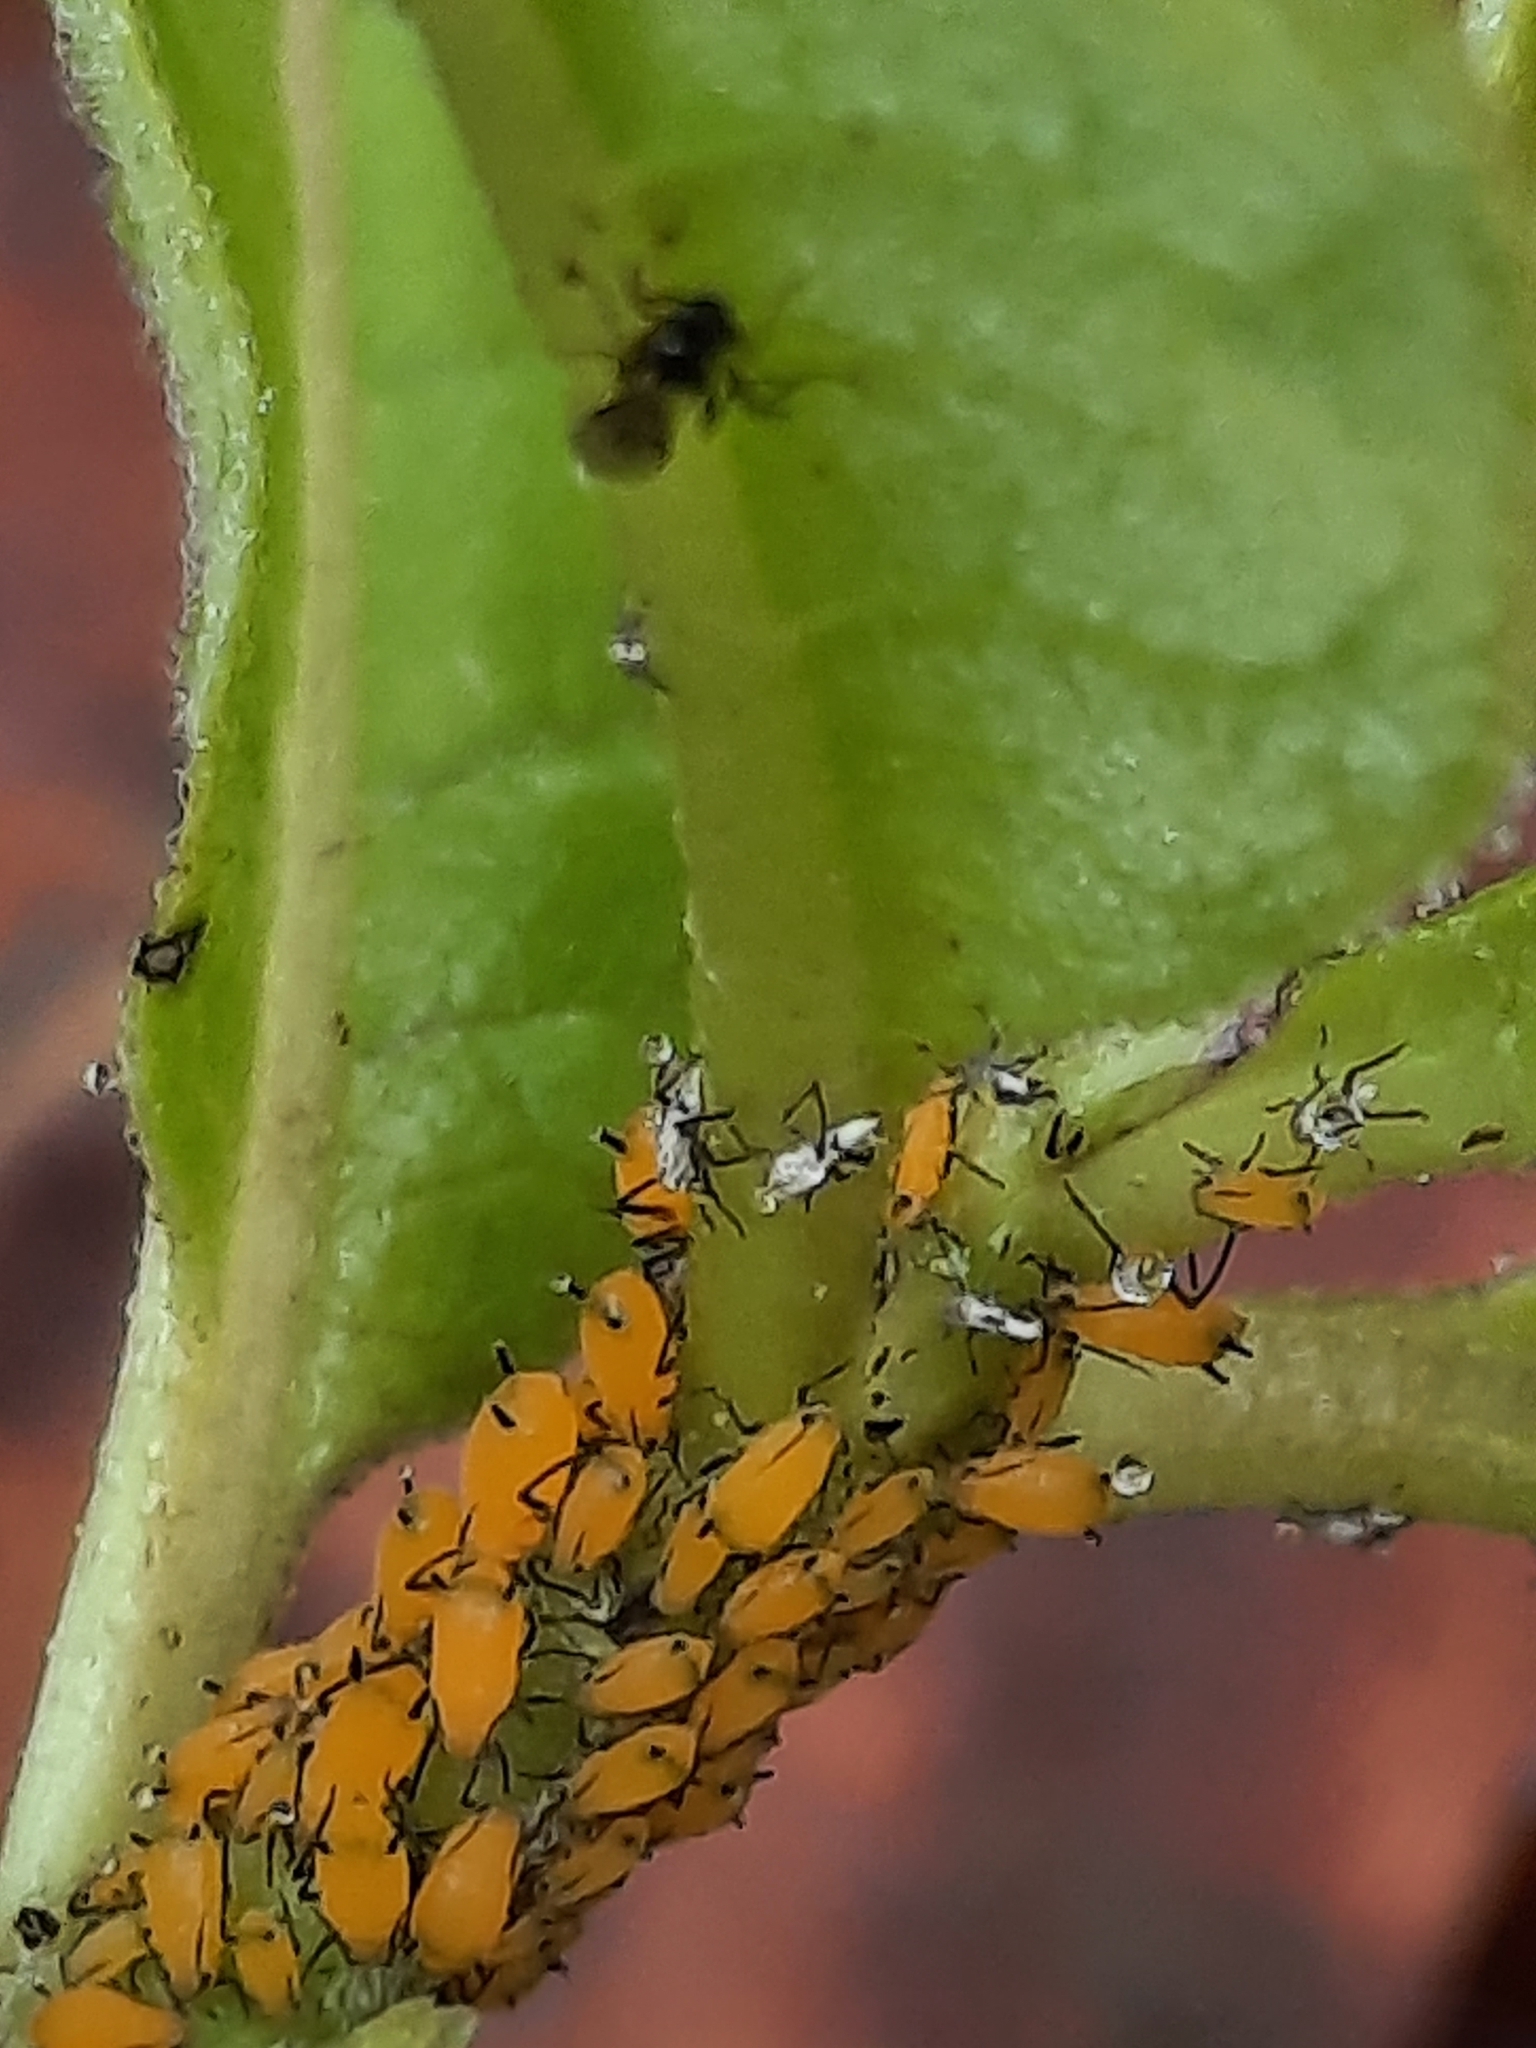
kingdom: Animalia
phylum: Arthropoda
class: Insecta
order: Hemiptera
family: Aphididae
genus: Aphis
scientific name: Aphis nerii
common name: Oleander aphid
